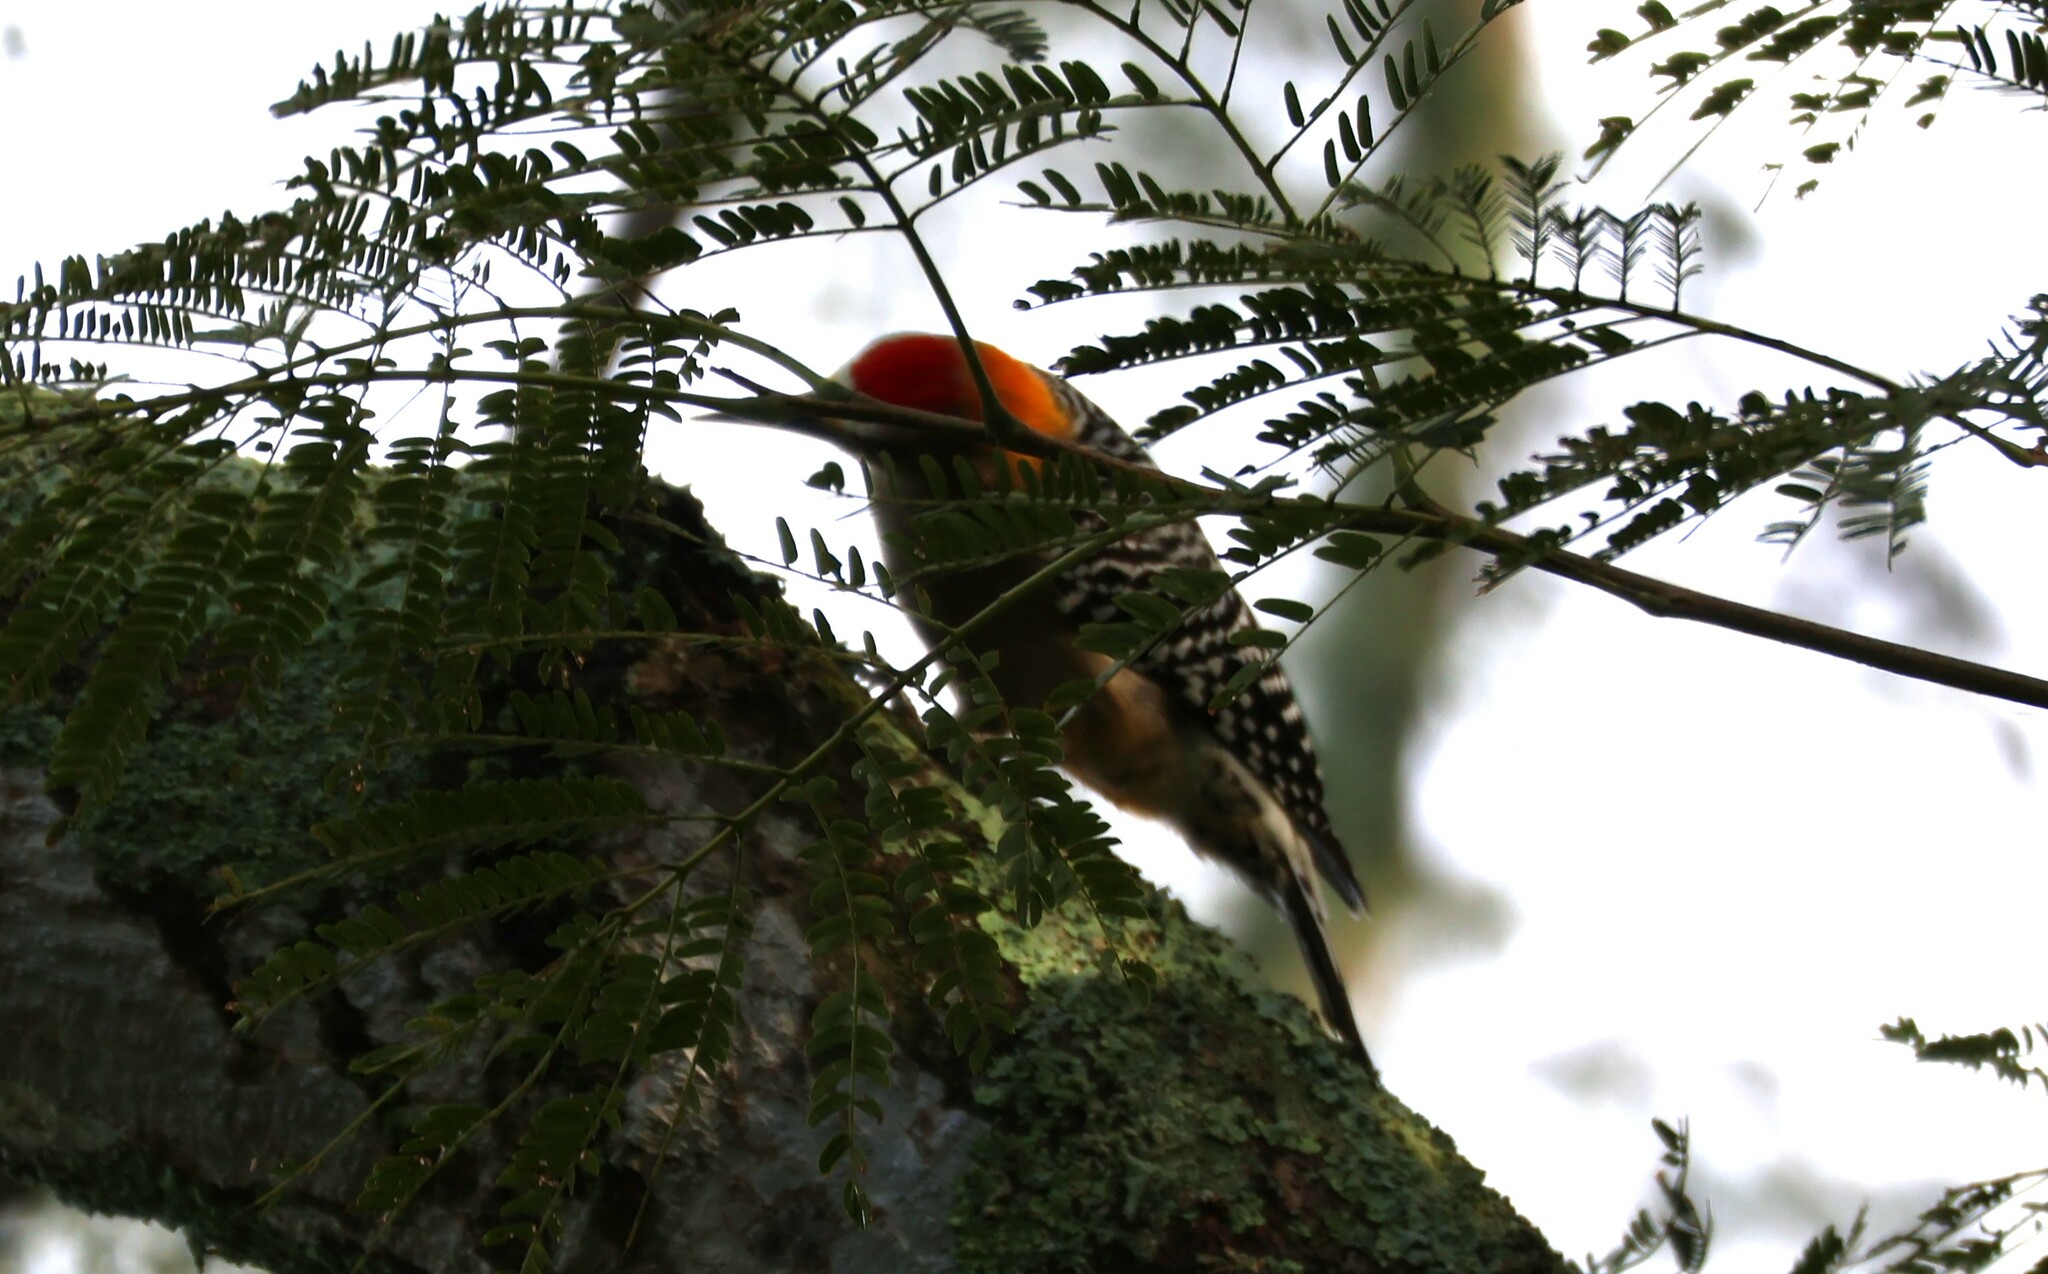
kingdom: Animalia
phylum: Chordata
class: Aves
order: Piciformes
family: Picidae
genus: Melanerpes
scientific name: Melanerpes hoffmannii
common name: Hoffmann's woodpecker
